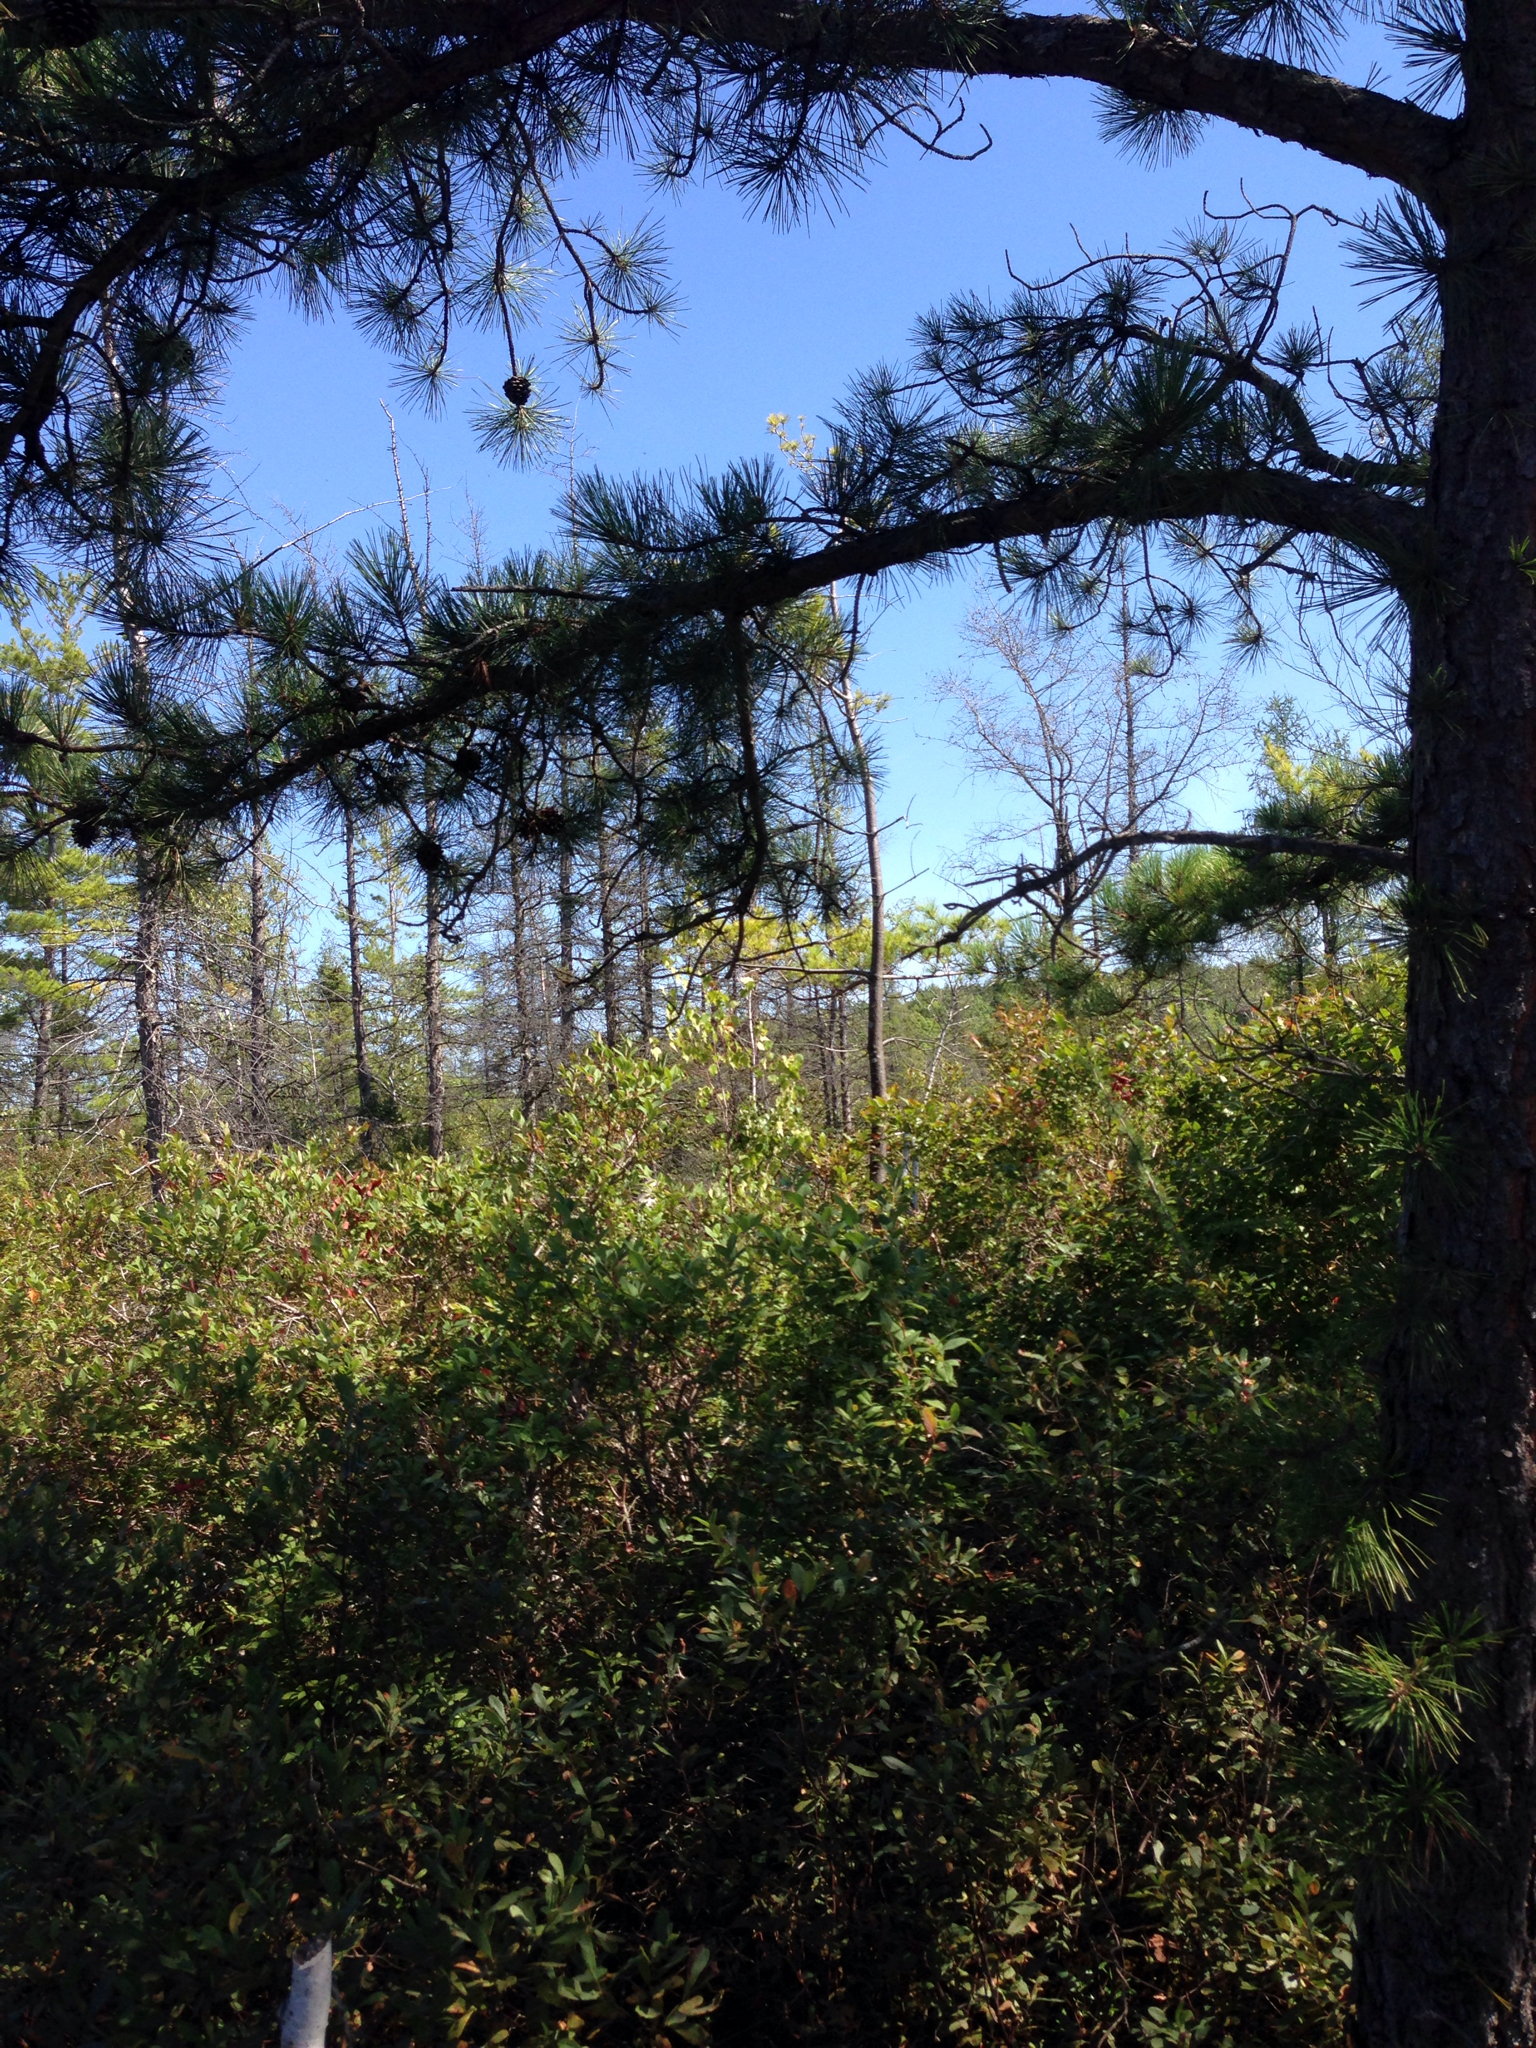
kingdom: Plantae
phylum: Tracheophyta
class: Pinopsida
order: Pinales
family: Pinaceae
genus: Pinus
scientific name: Pinus rigida
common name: Pitch pine
